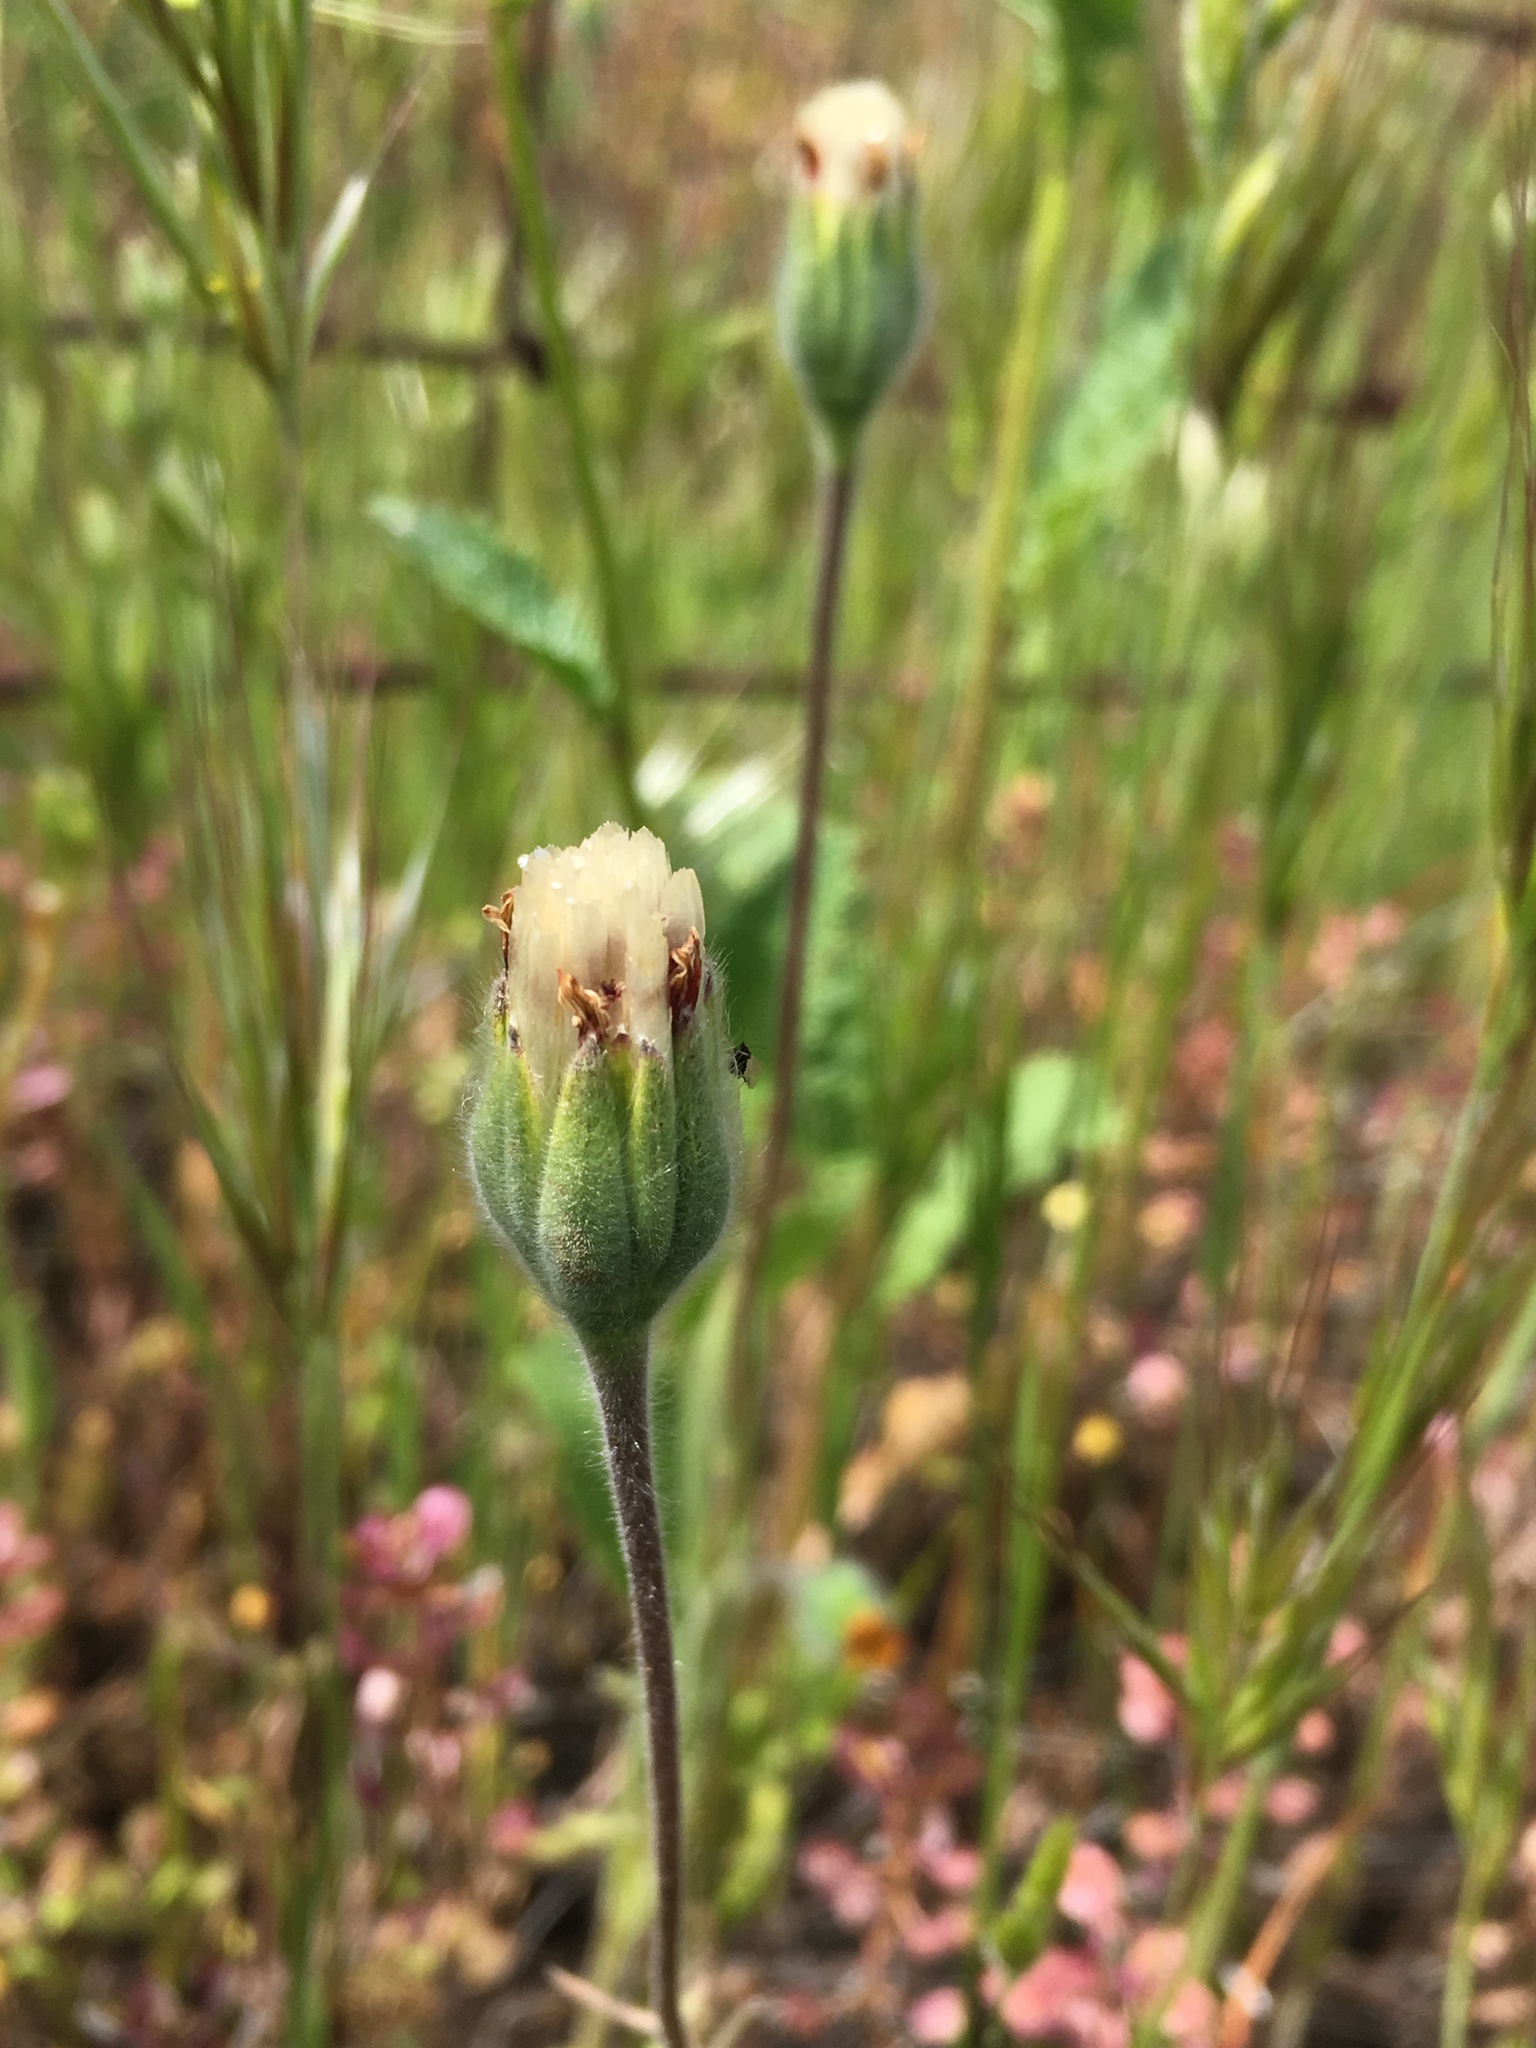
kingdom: Plantae
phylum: Tracheophyta
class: Magnoliopsida
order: Asterales
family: Asteraceae
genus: Achyrachaena
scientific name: Achyrachaena mollis
